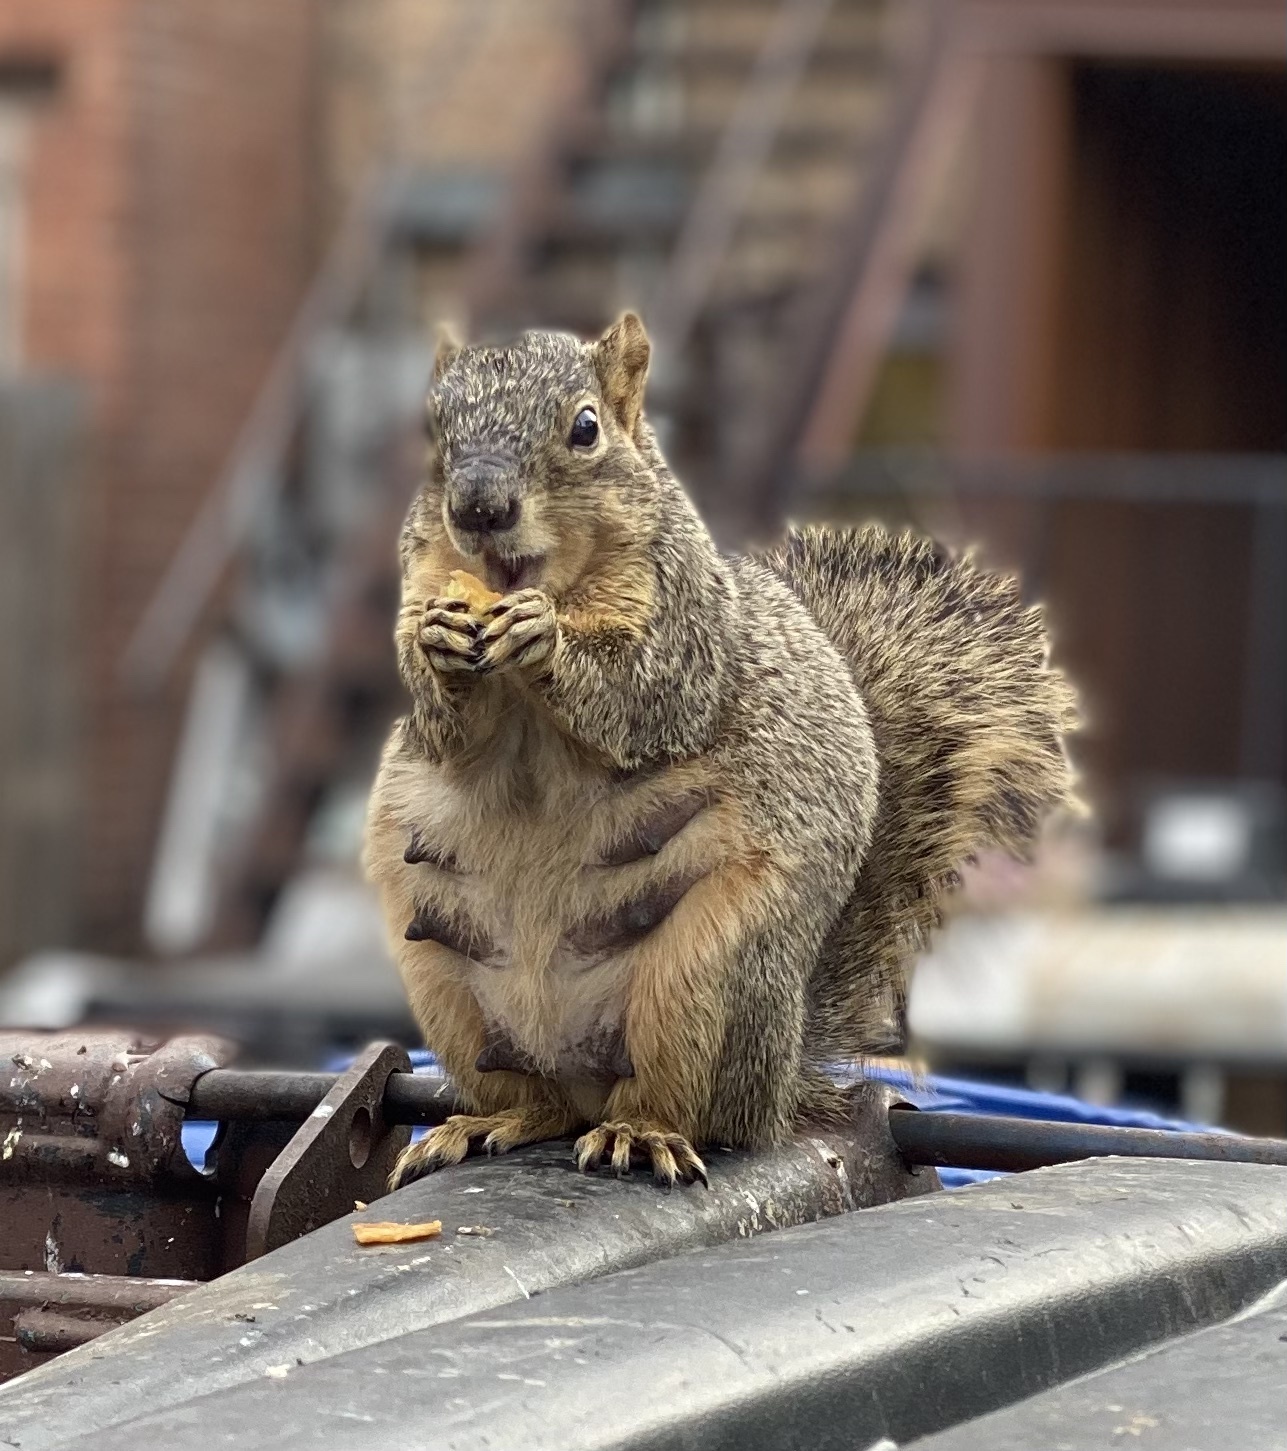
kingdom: Animalia
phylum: Chordata
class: Mammalia
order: Rodentia
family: Sciuridae
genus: Sciurus
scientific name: Sciurus niger
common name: Fox squirrel
